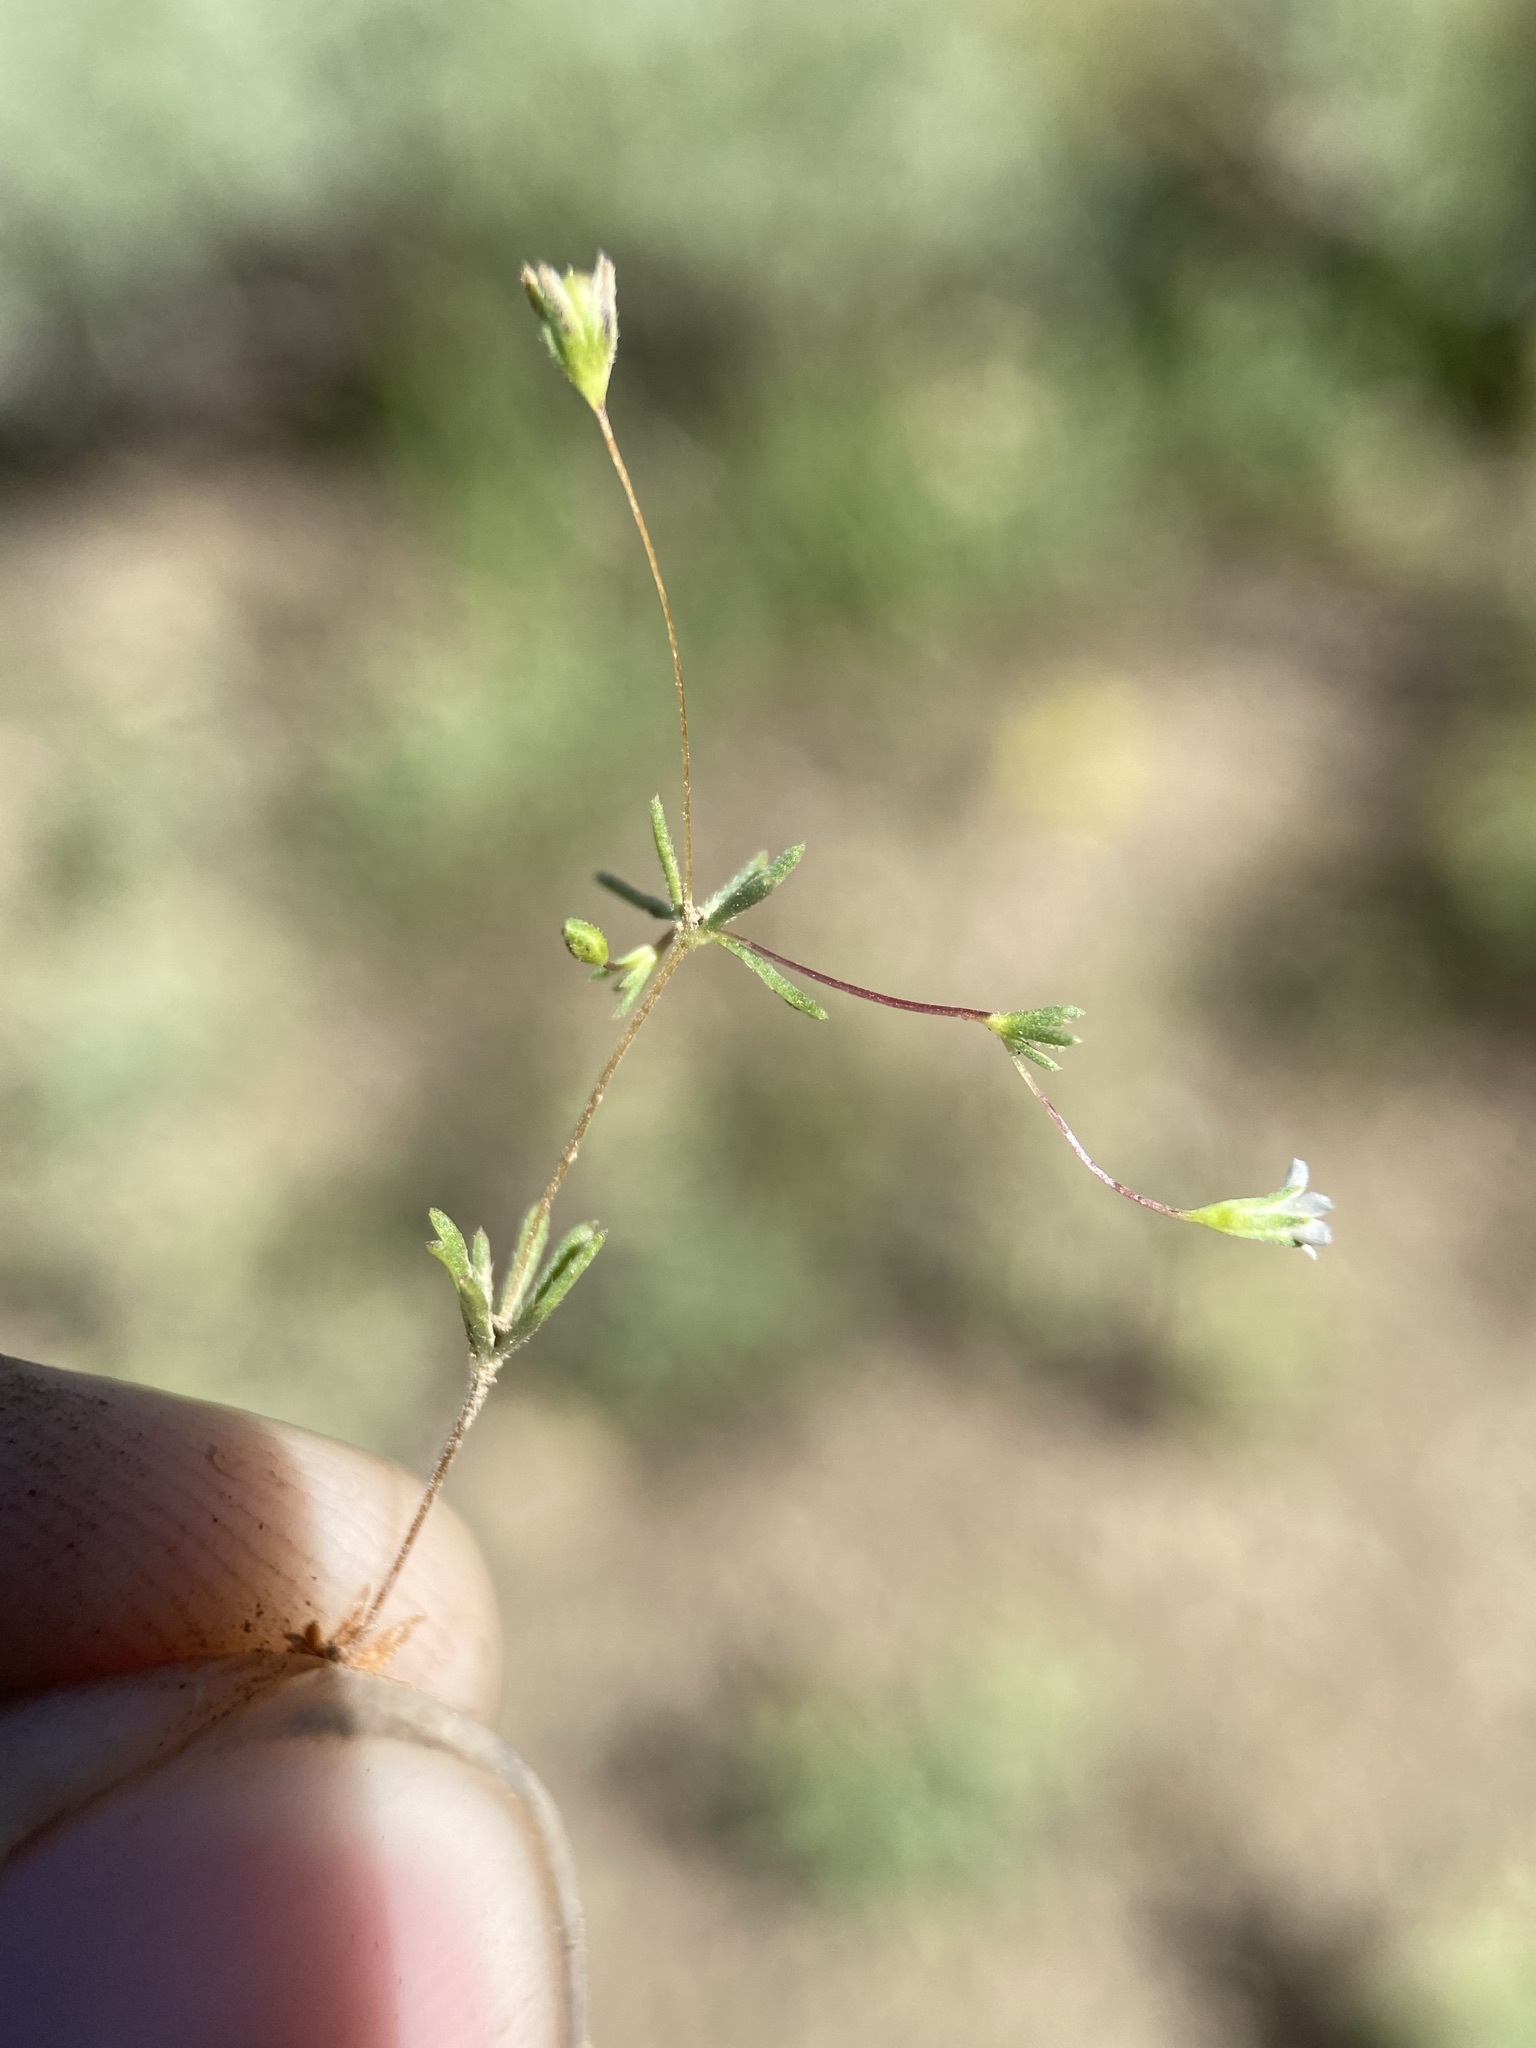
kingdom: Plantae
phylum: Tracheophyta
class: Magnoliopsida
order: Ericales
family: Polemoniaceae
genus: Linanthus
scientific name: Linanthus harknessii
